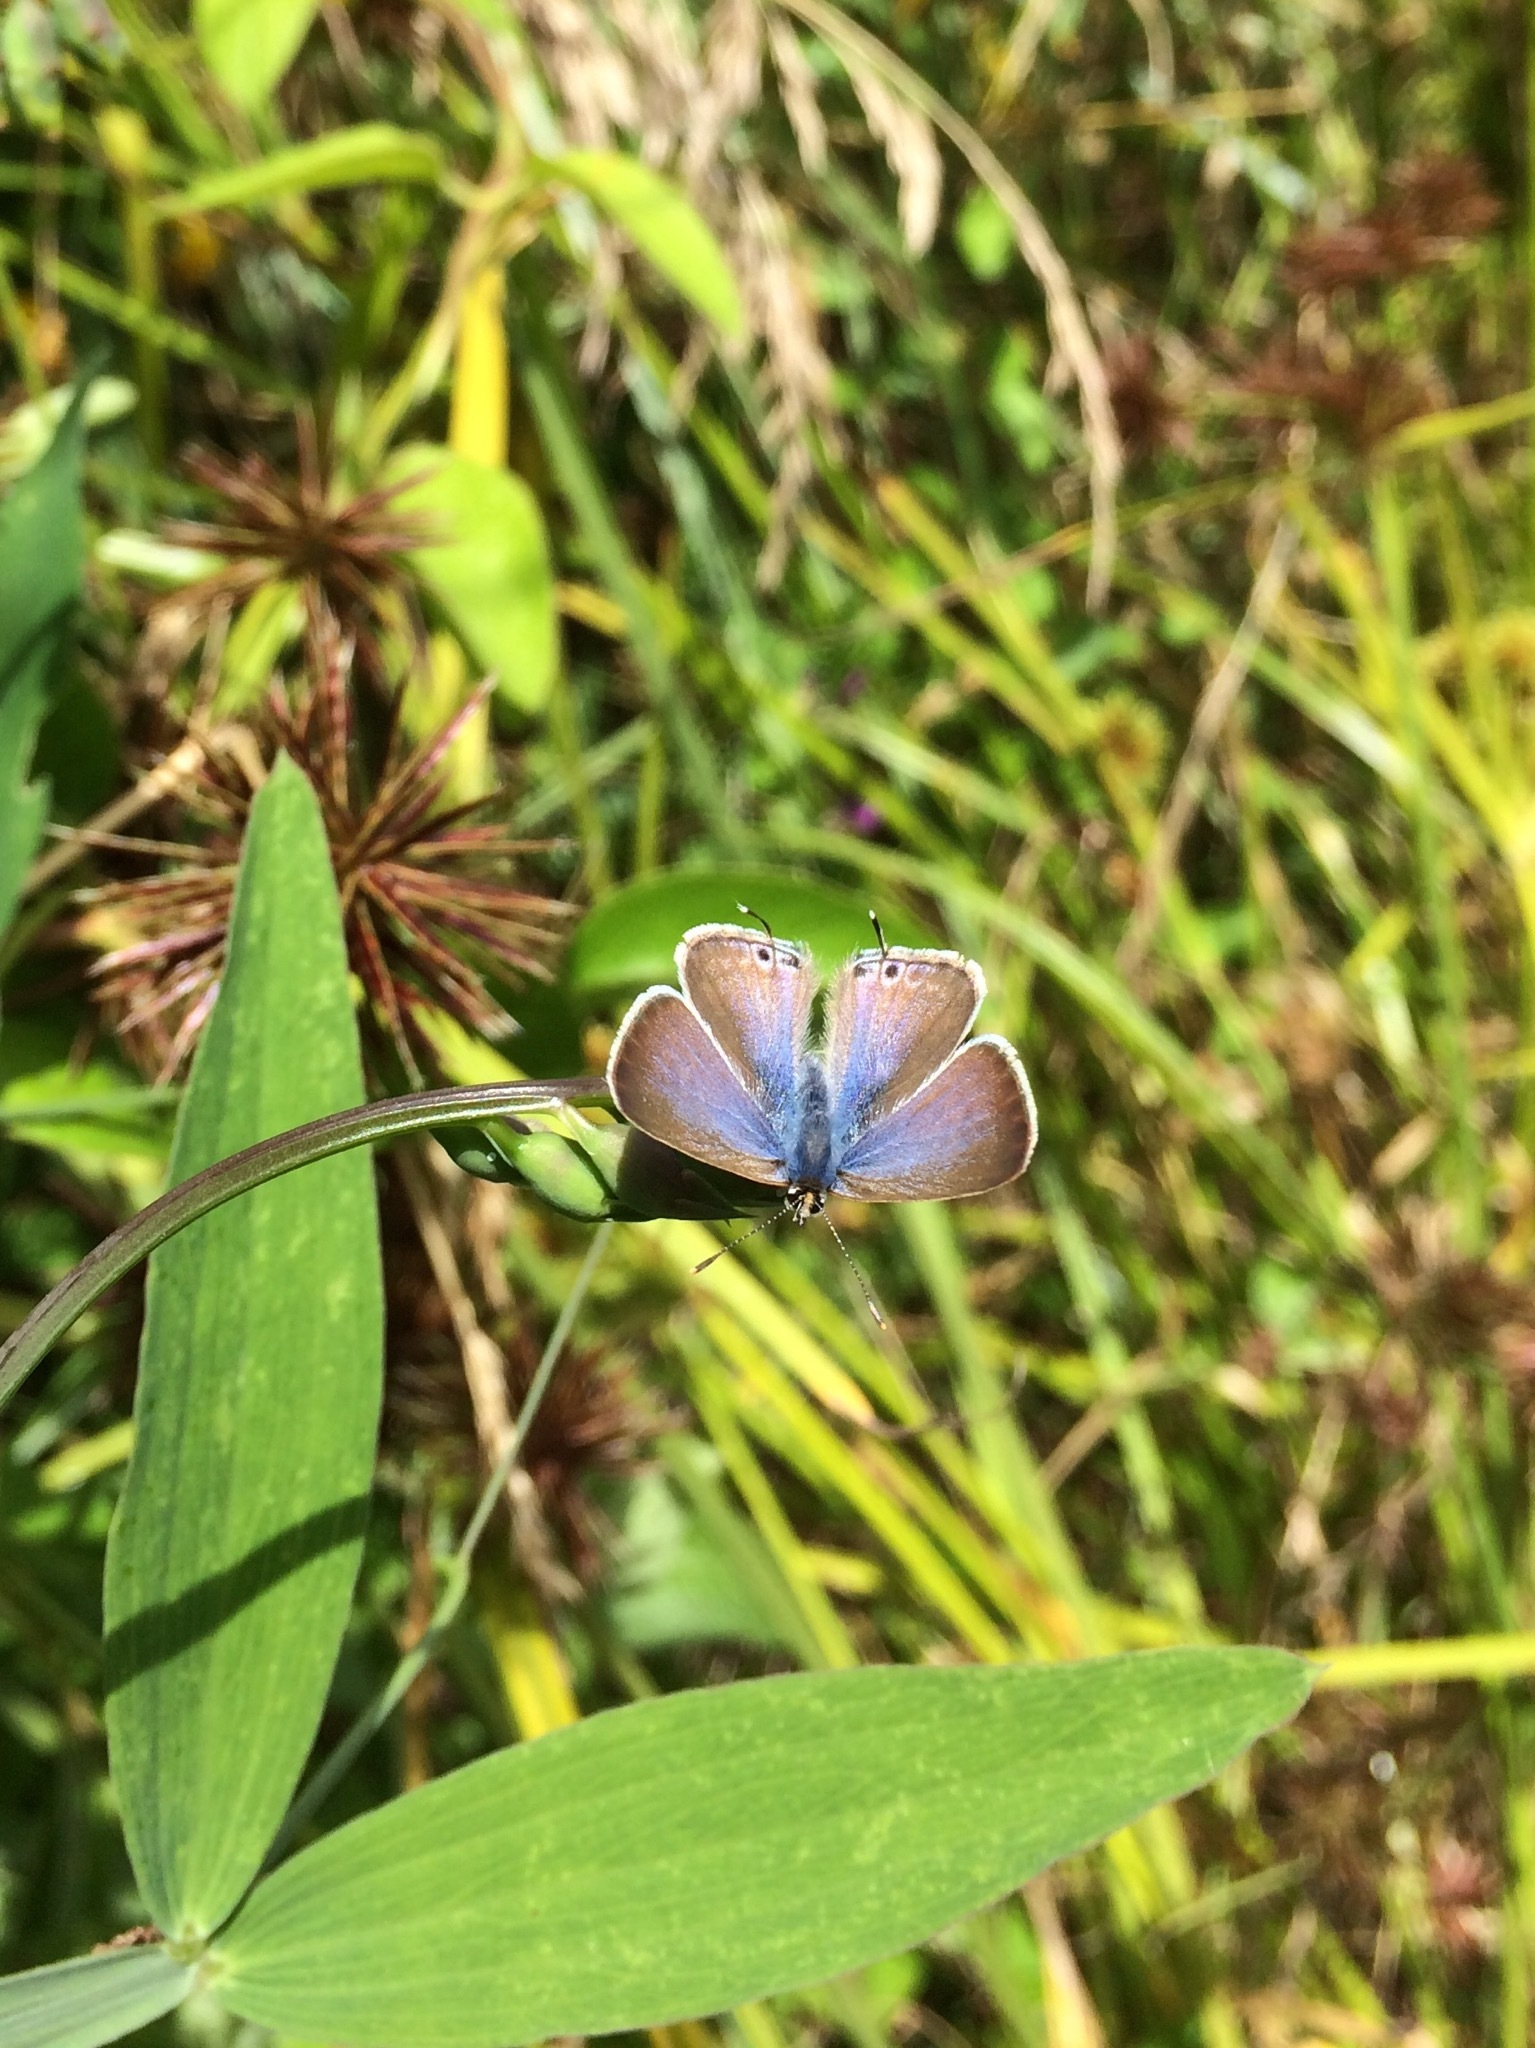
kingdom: Animalia
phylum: Arthropoda
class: Insecta
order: Lepidoptera
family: Lycaenidae
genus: Lampides
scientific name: Lampides boeticus
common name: Long-tailed blue
